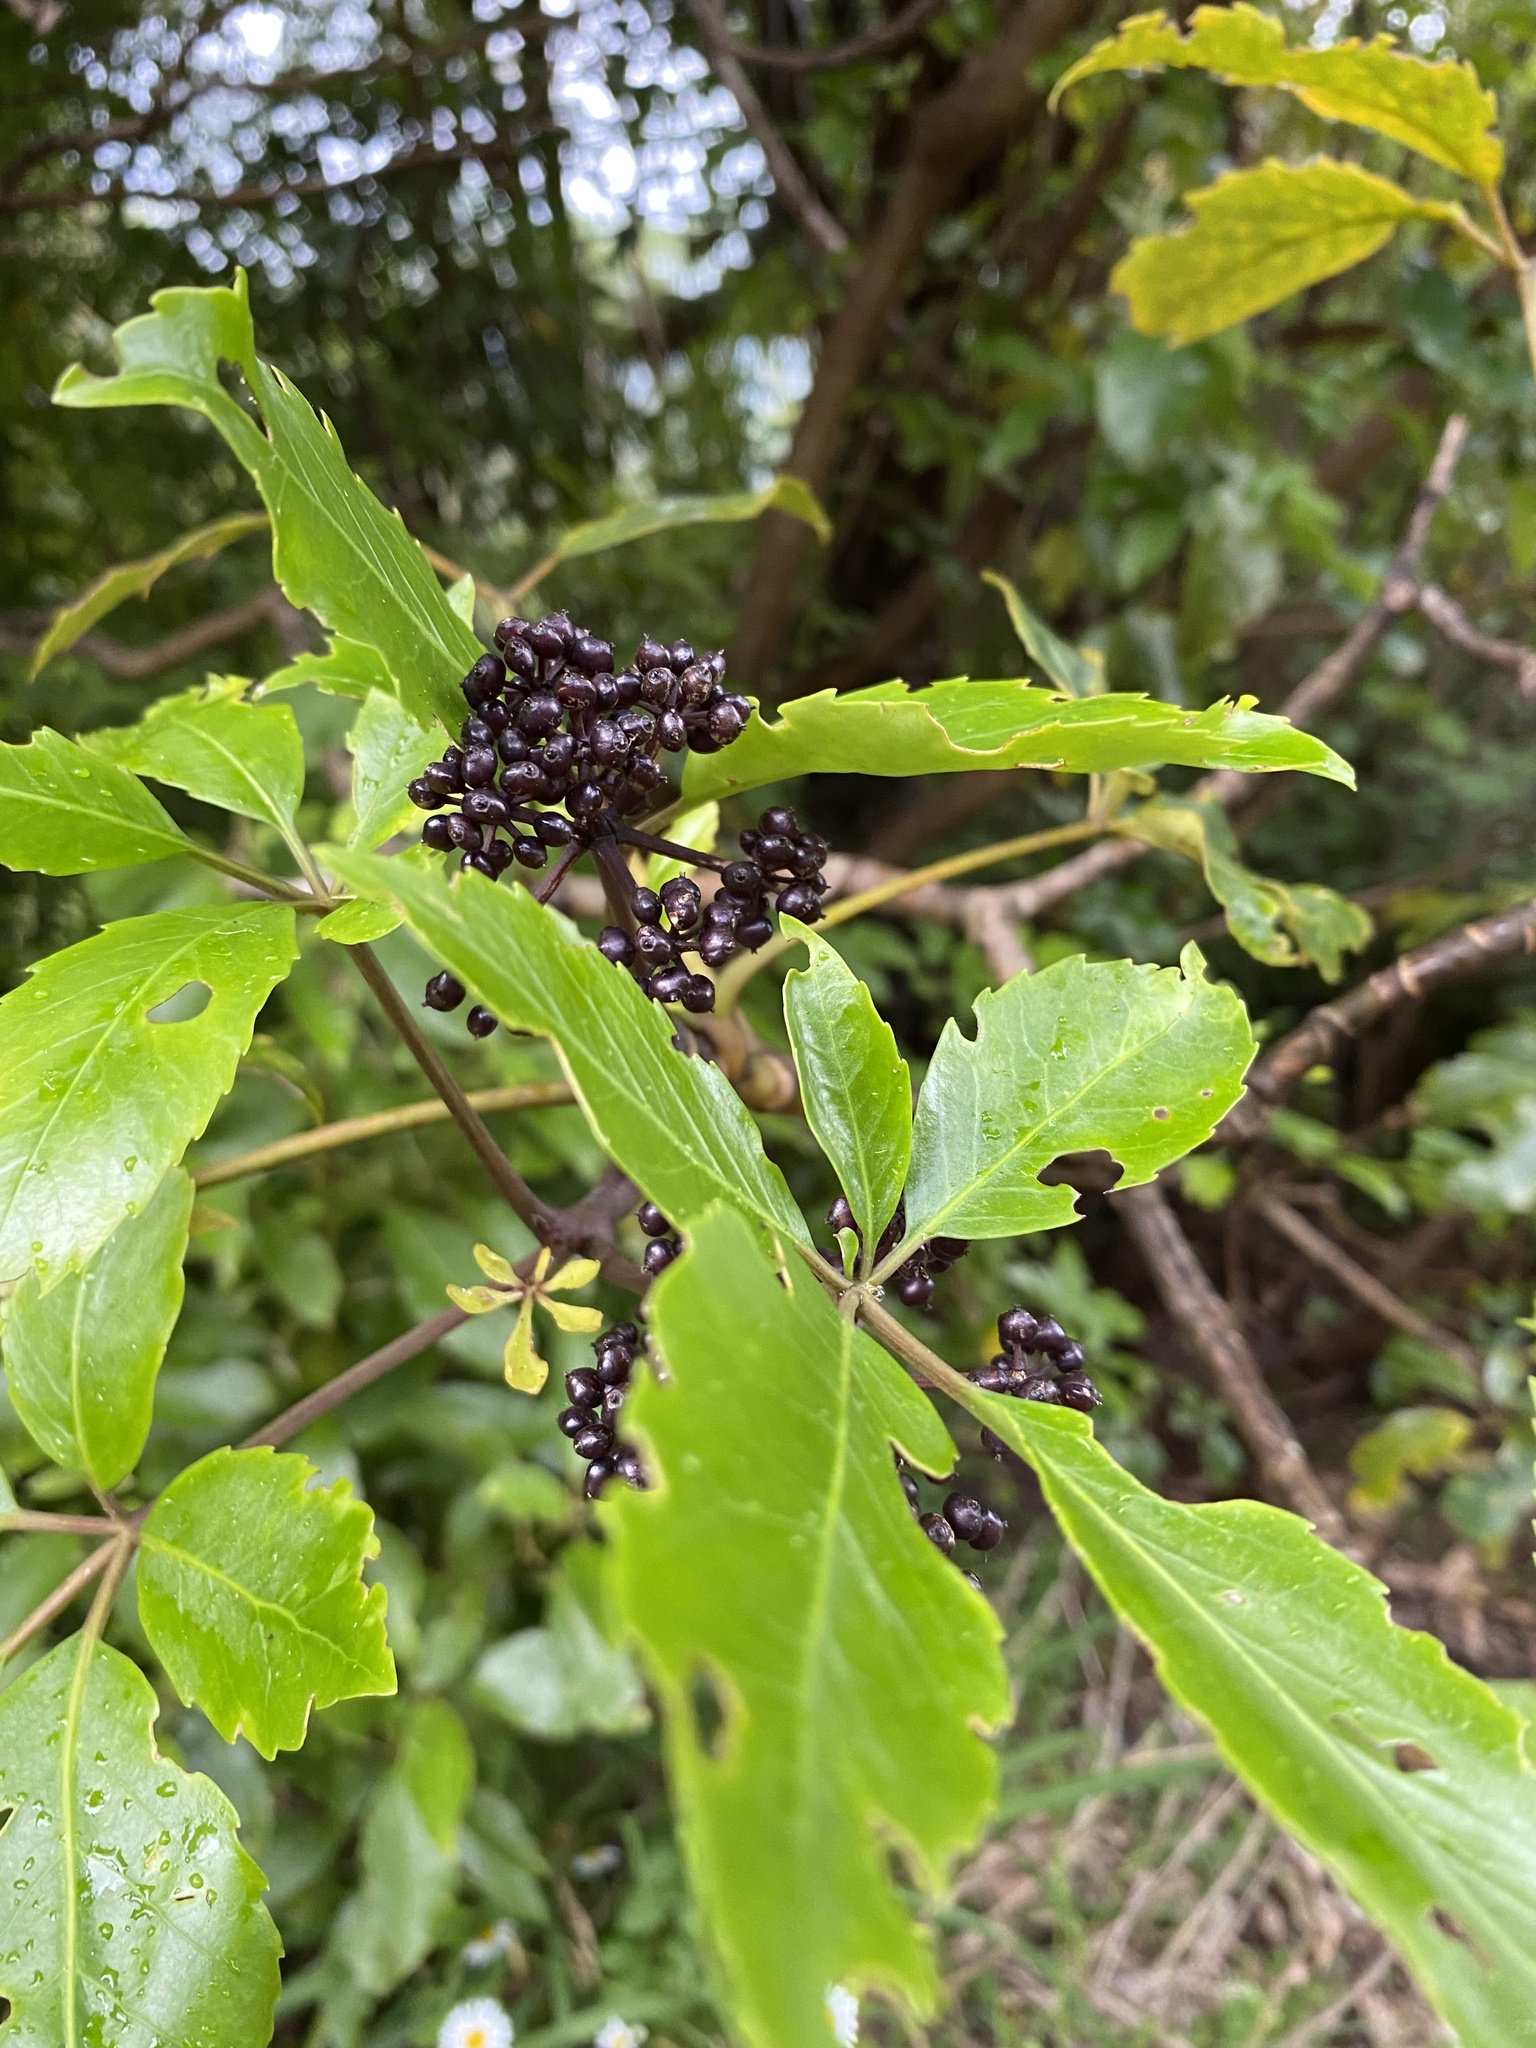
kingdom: Plantae
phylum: Tracheophyta
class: Magnoliopsida
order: Apiales
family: Araliaceae
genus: Neopanax
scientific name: Neopanax arboreus
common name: Five-fingers
